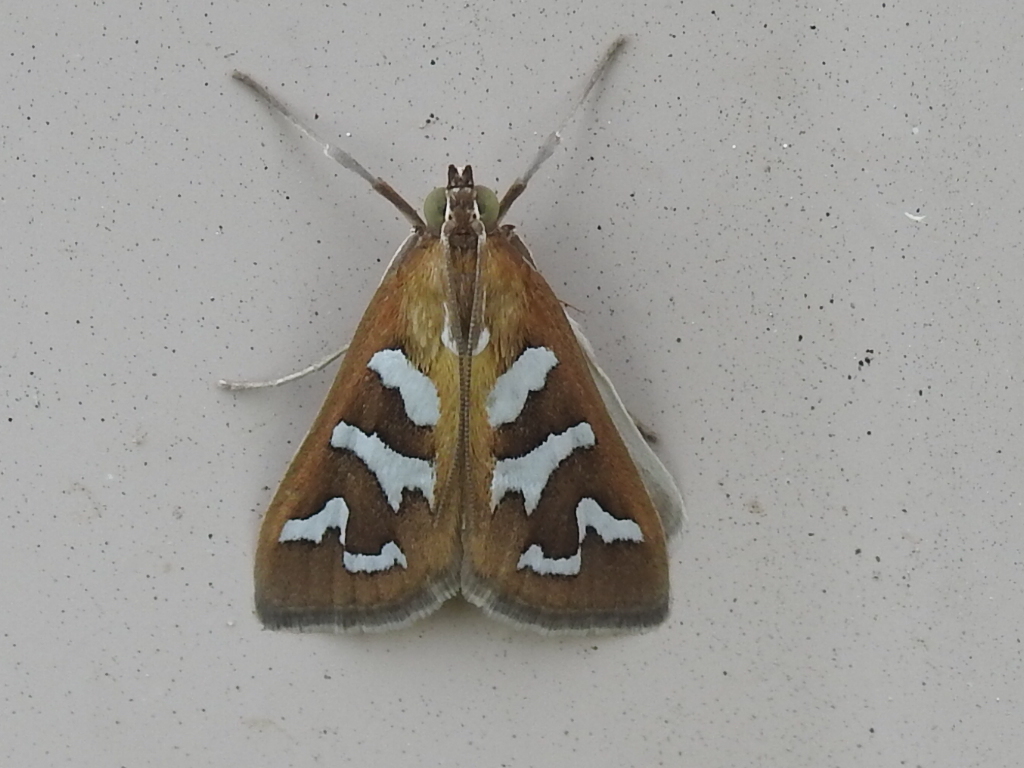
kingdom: Animalia
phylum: Arthropoda
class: Insecta
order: Lepidoptera
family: Crambidae
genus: Diastictis
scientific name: Diastictis fracturalis
